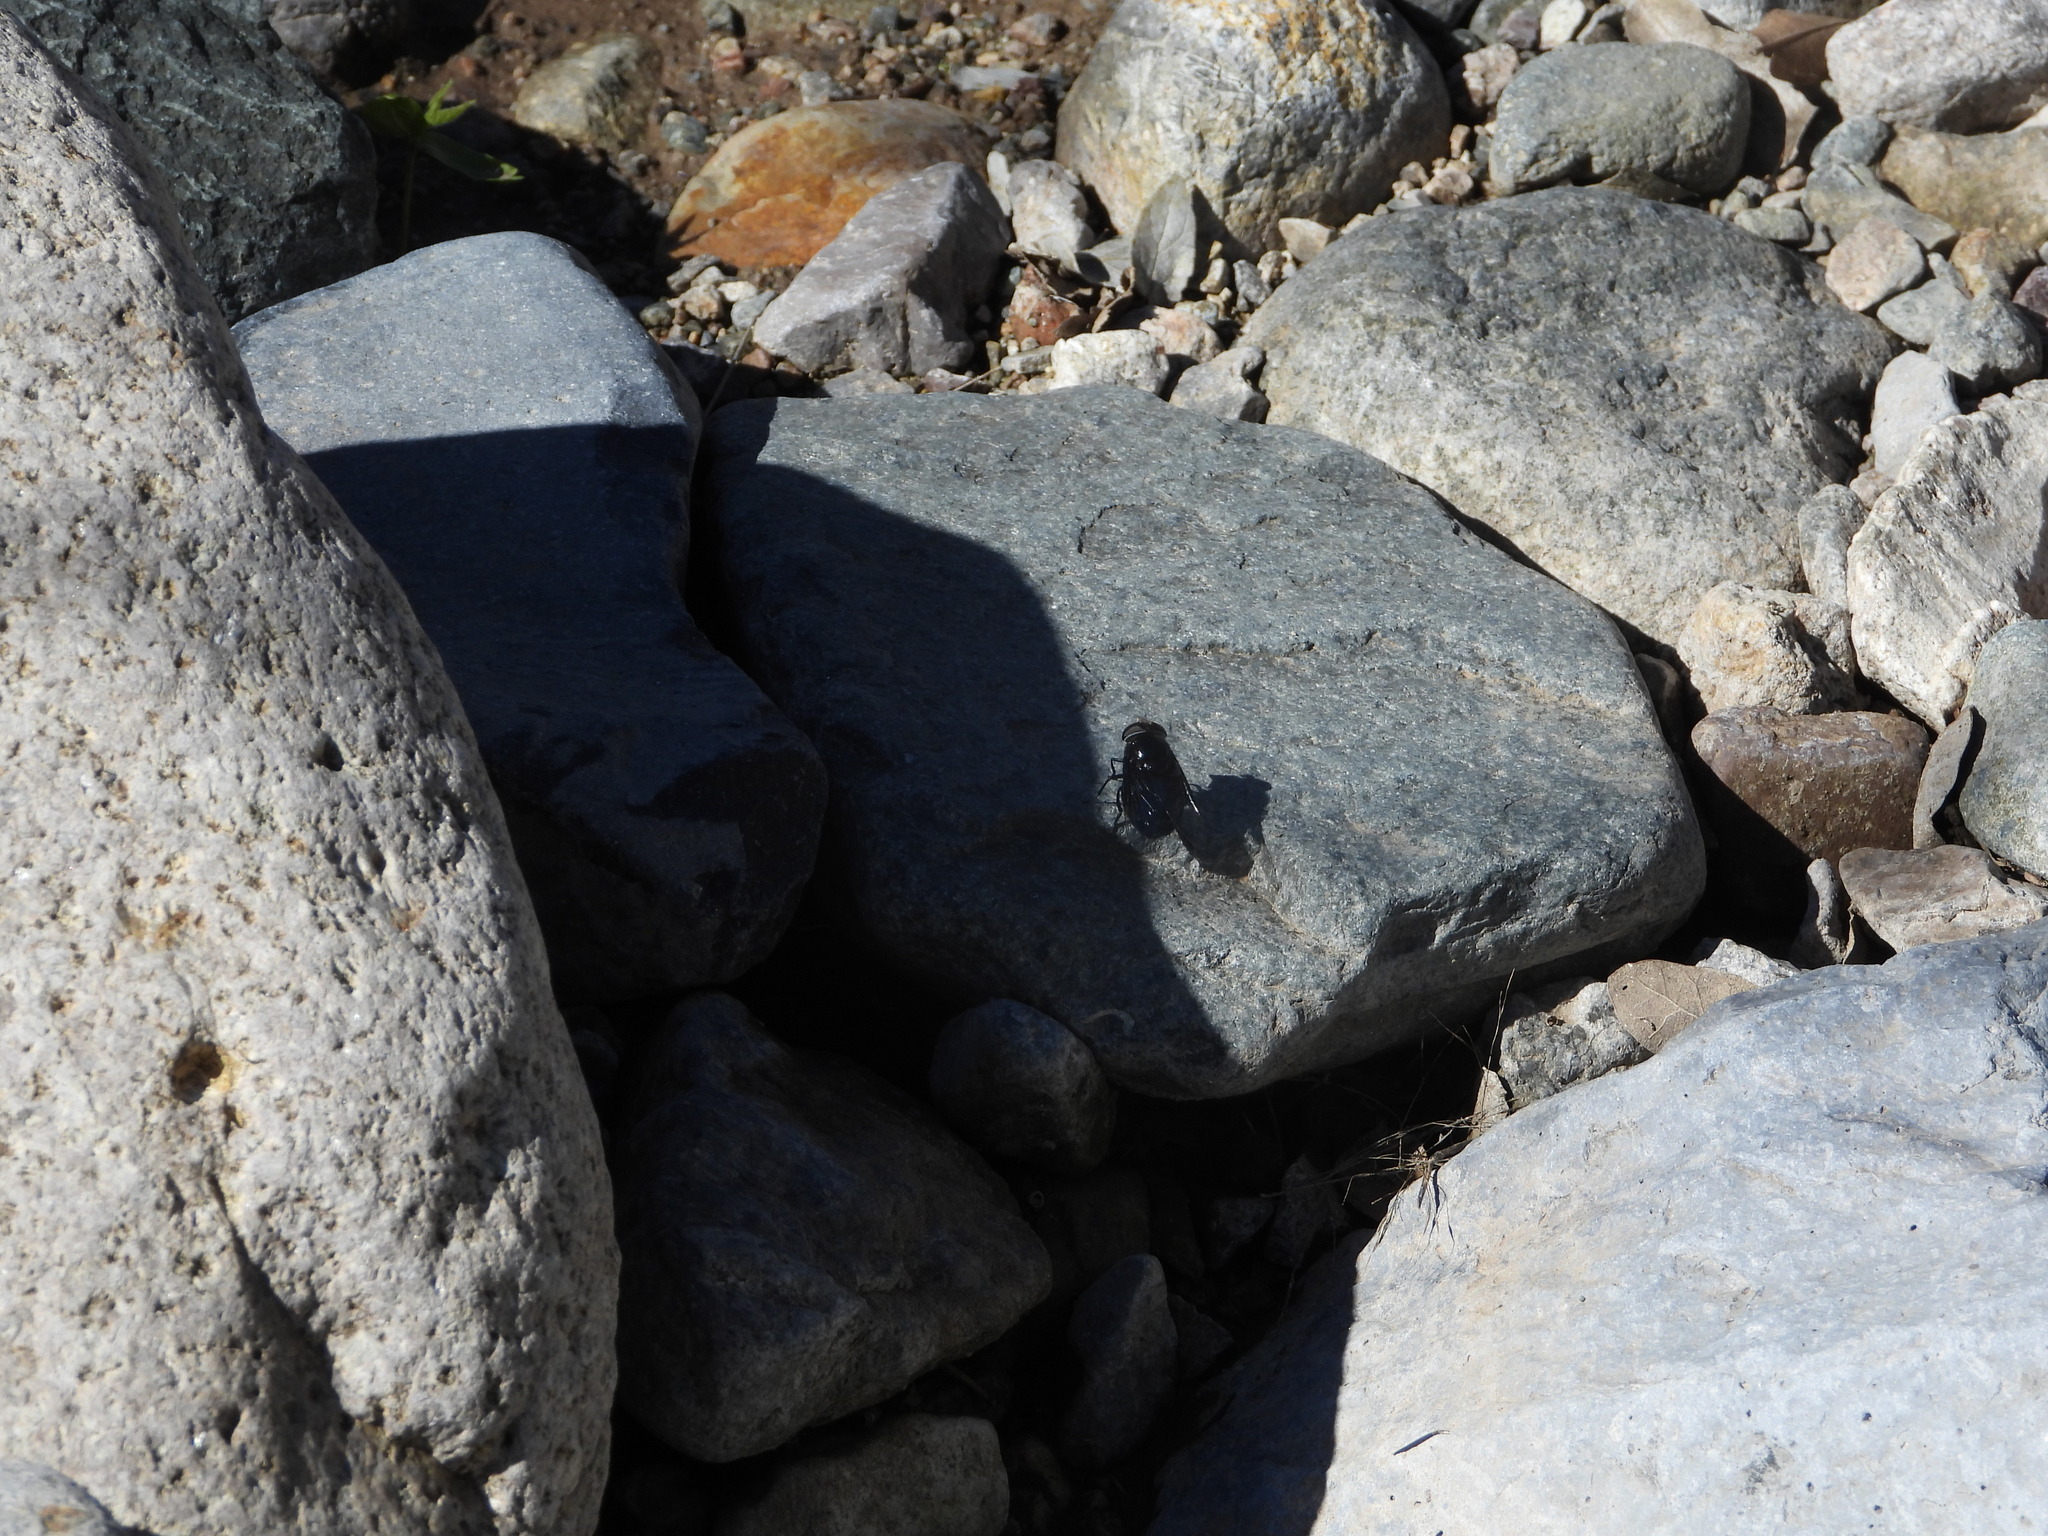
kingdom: Animalia
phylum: Arthropoda
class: Insecta
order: Diptera
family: Syrphidae
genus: Copestylum
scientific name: Copestylum
